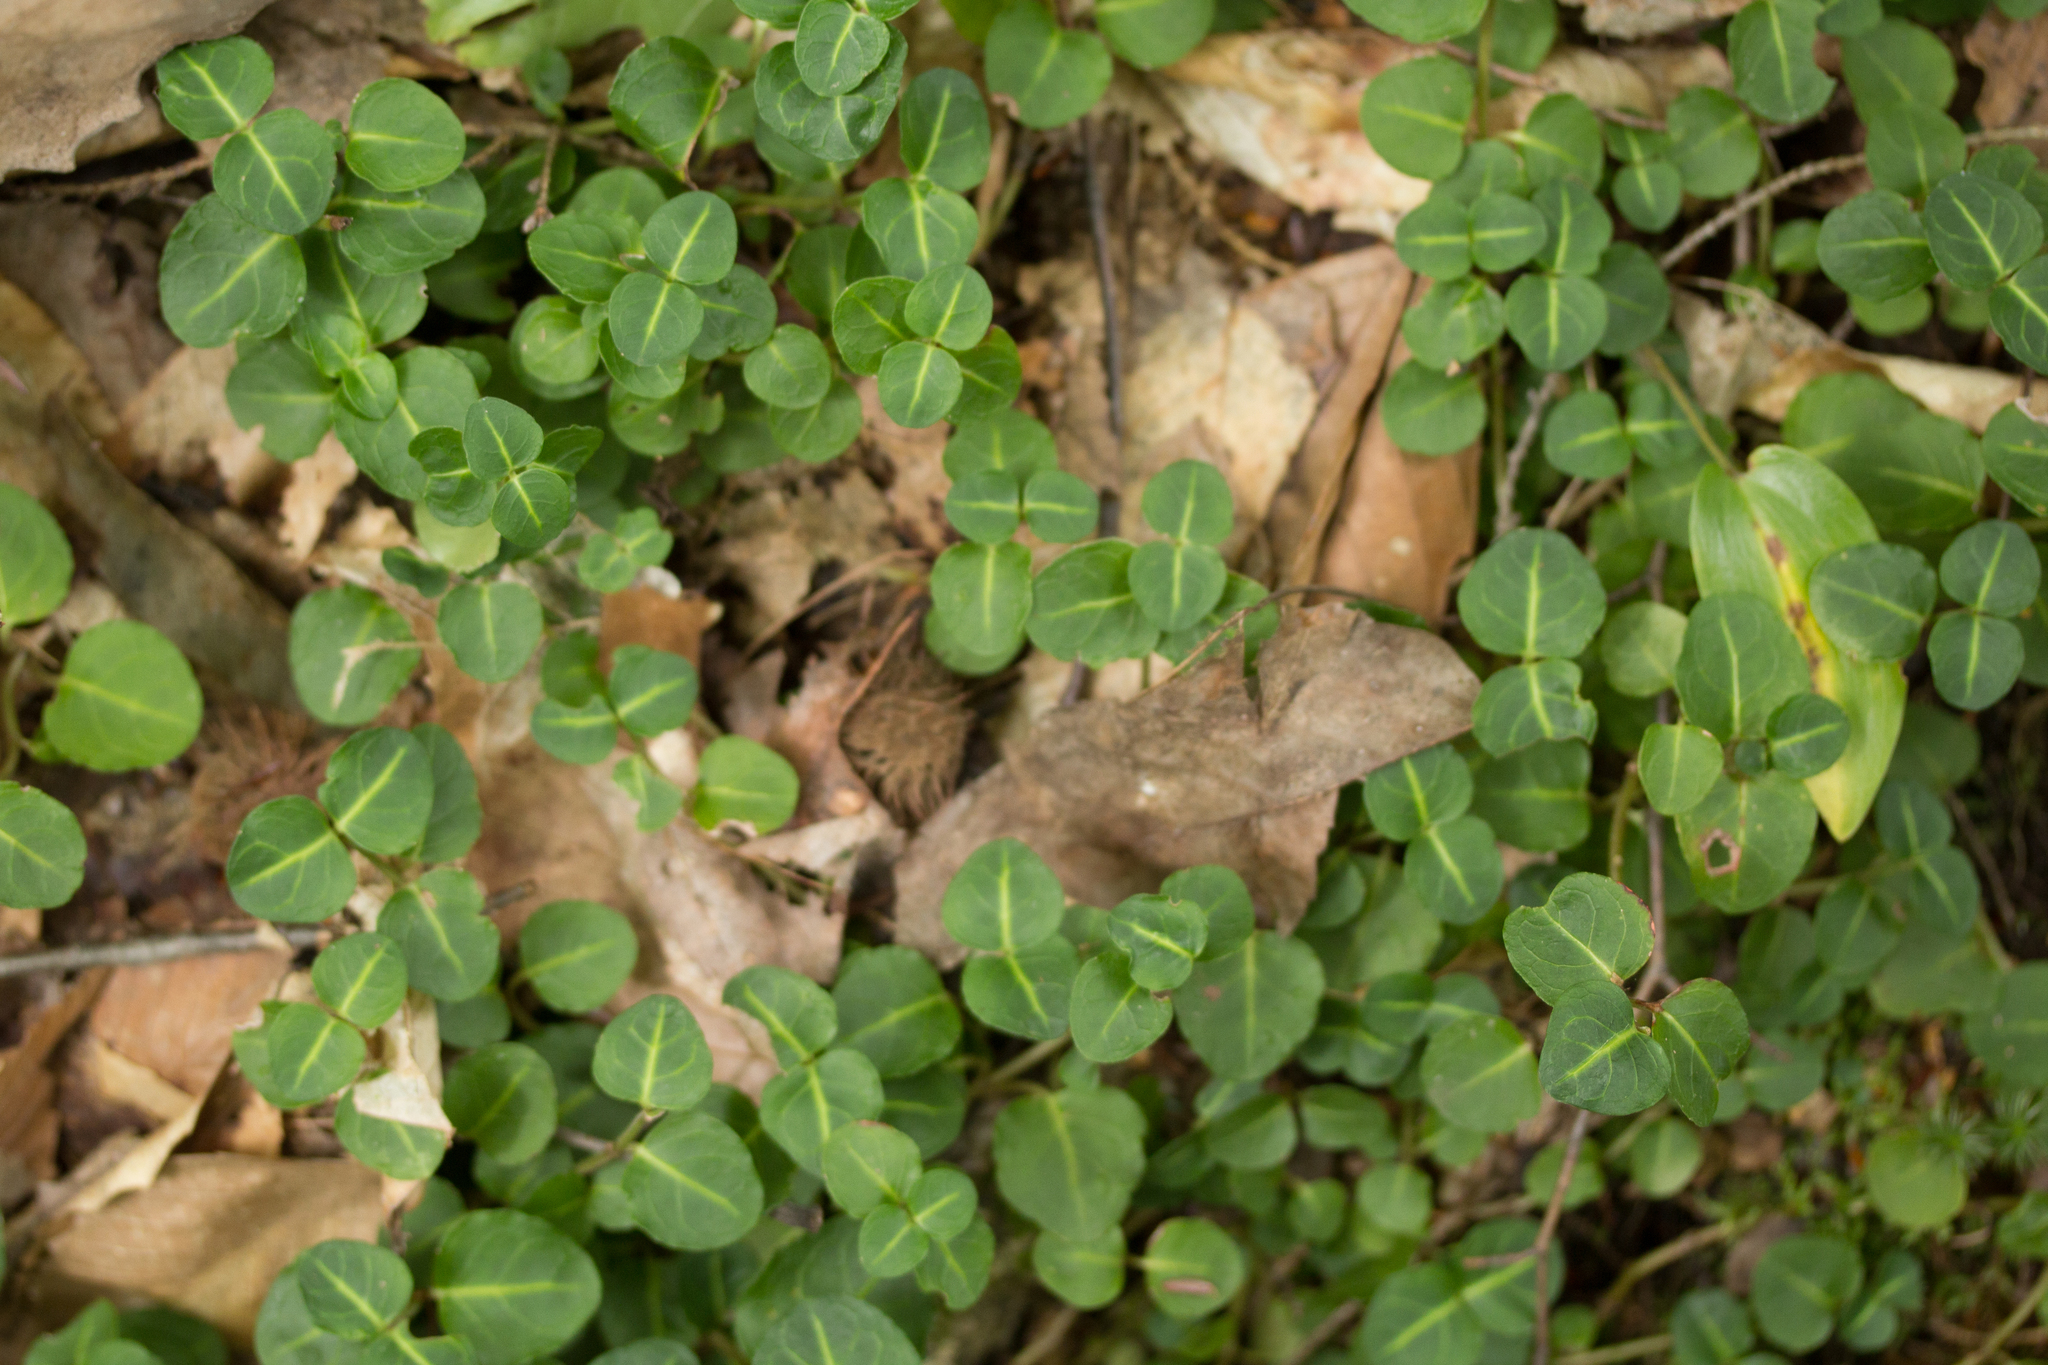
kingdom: Plantae
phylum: Tracheophyta
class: Magnoliopsida
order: Gentianales
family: Rubiaceae
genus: Mitchella
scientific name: Mitchella repens
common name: Partridge-berry
